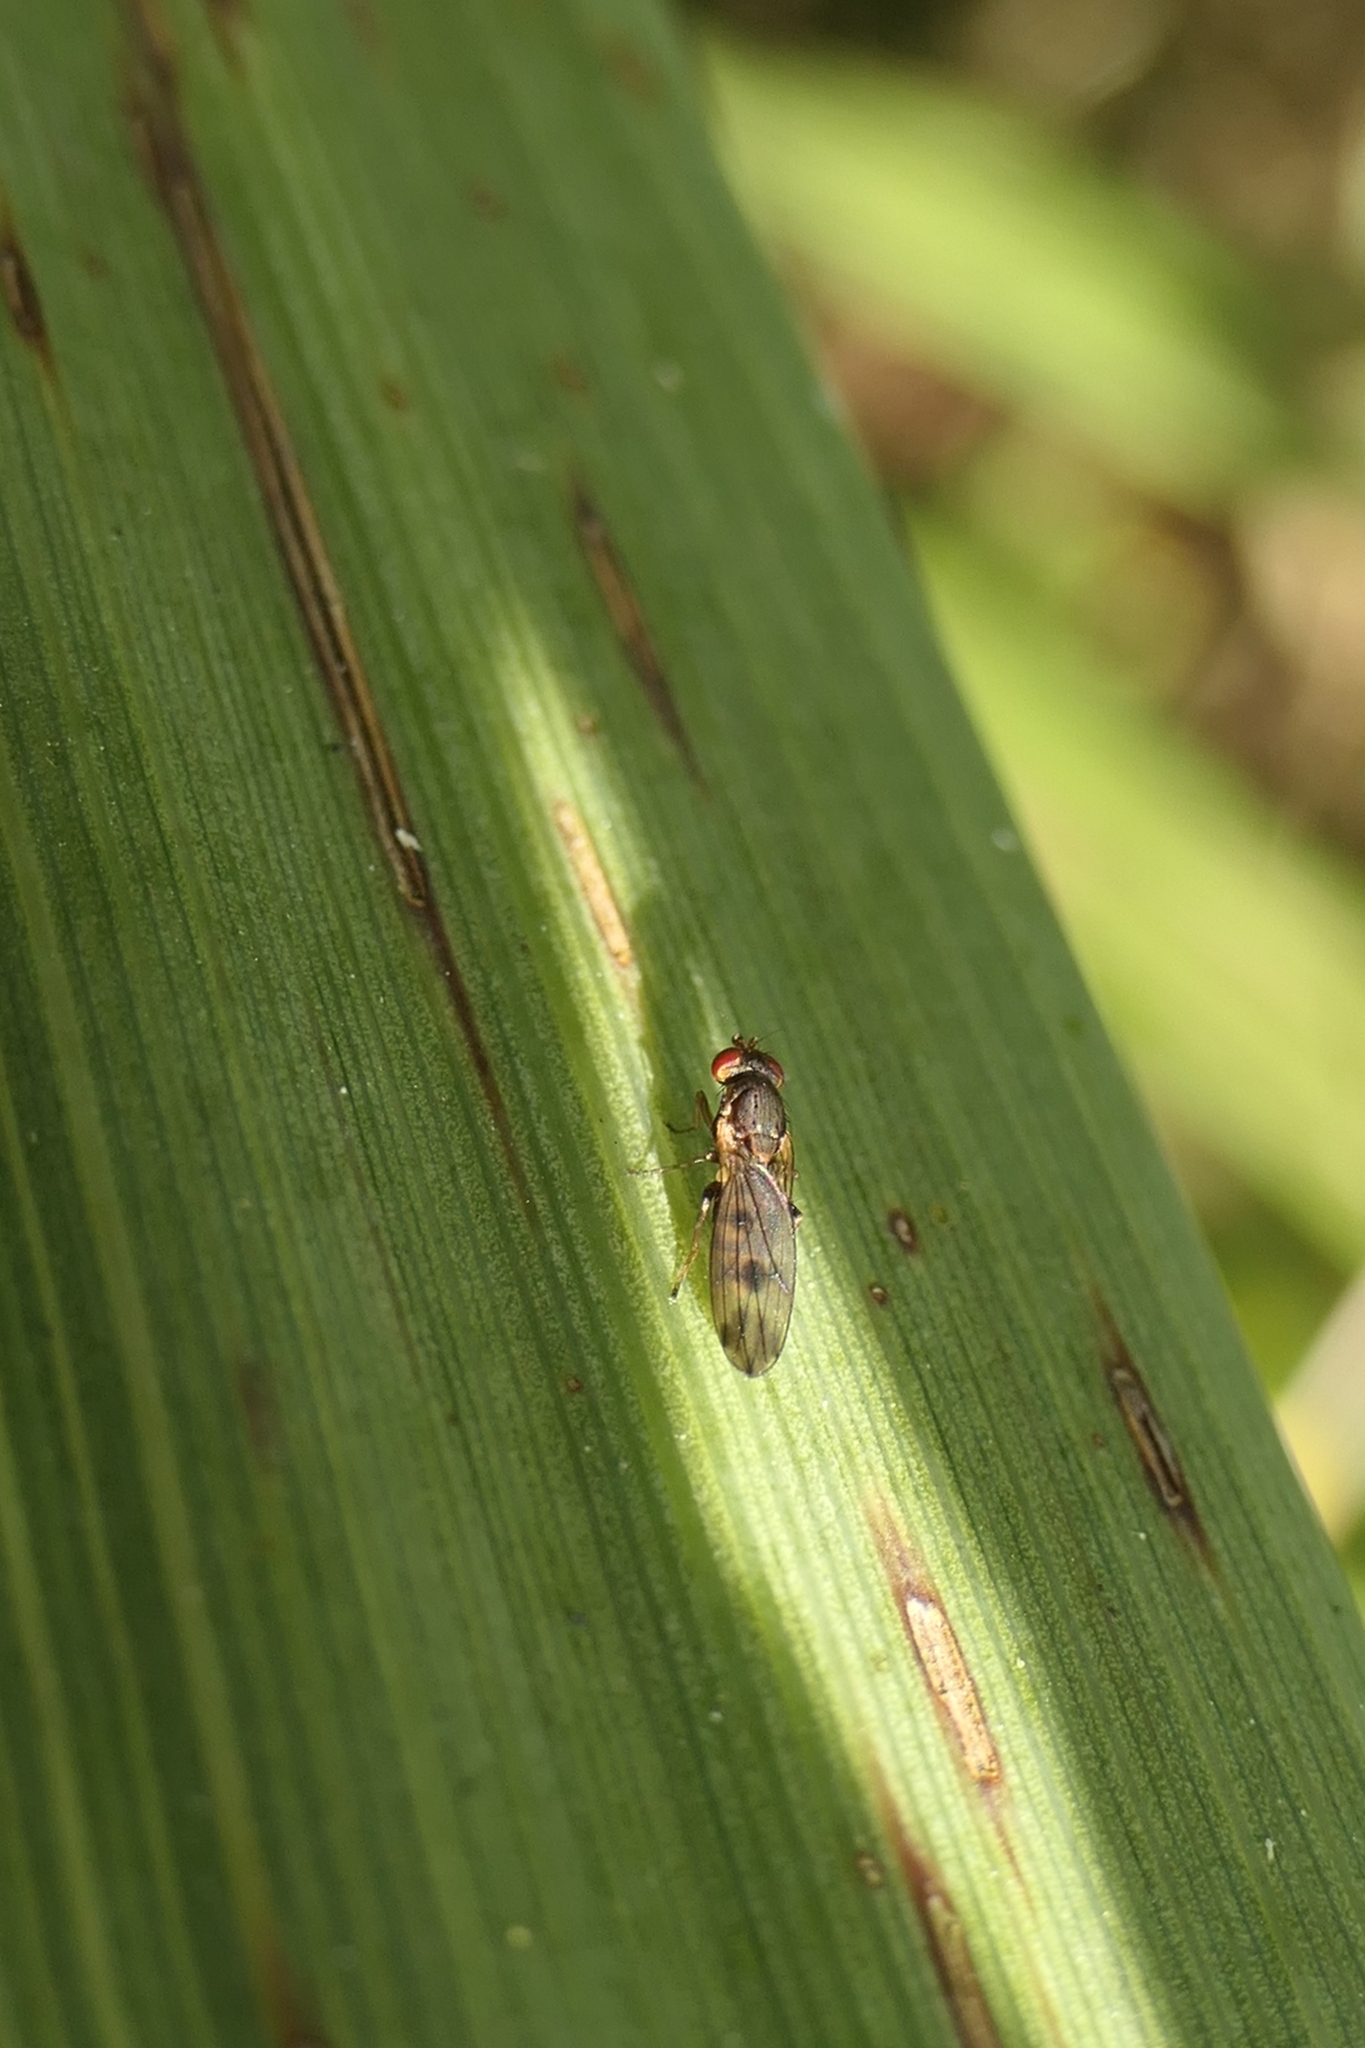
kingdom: Animalia
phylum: Arthropoda
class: Insecta
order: Diptera
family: Heleomyzidae
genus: Fenwickia
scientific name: Fenwickia hirsuta
